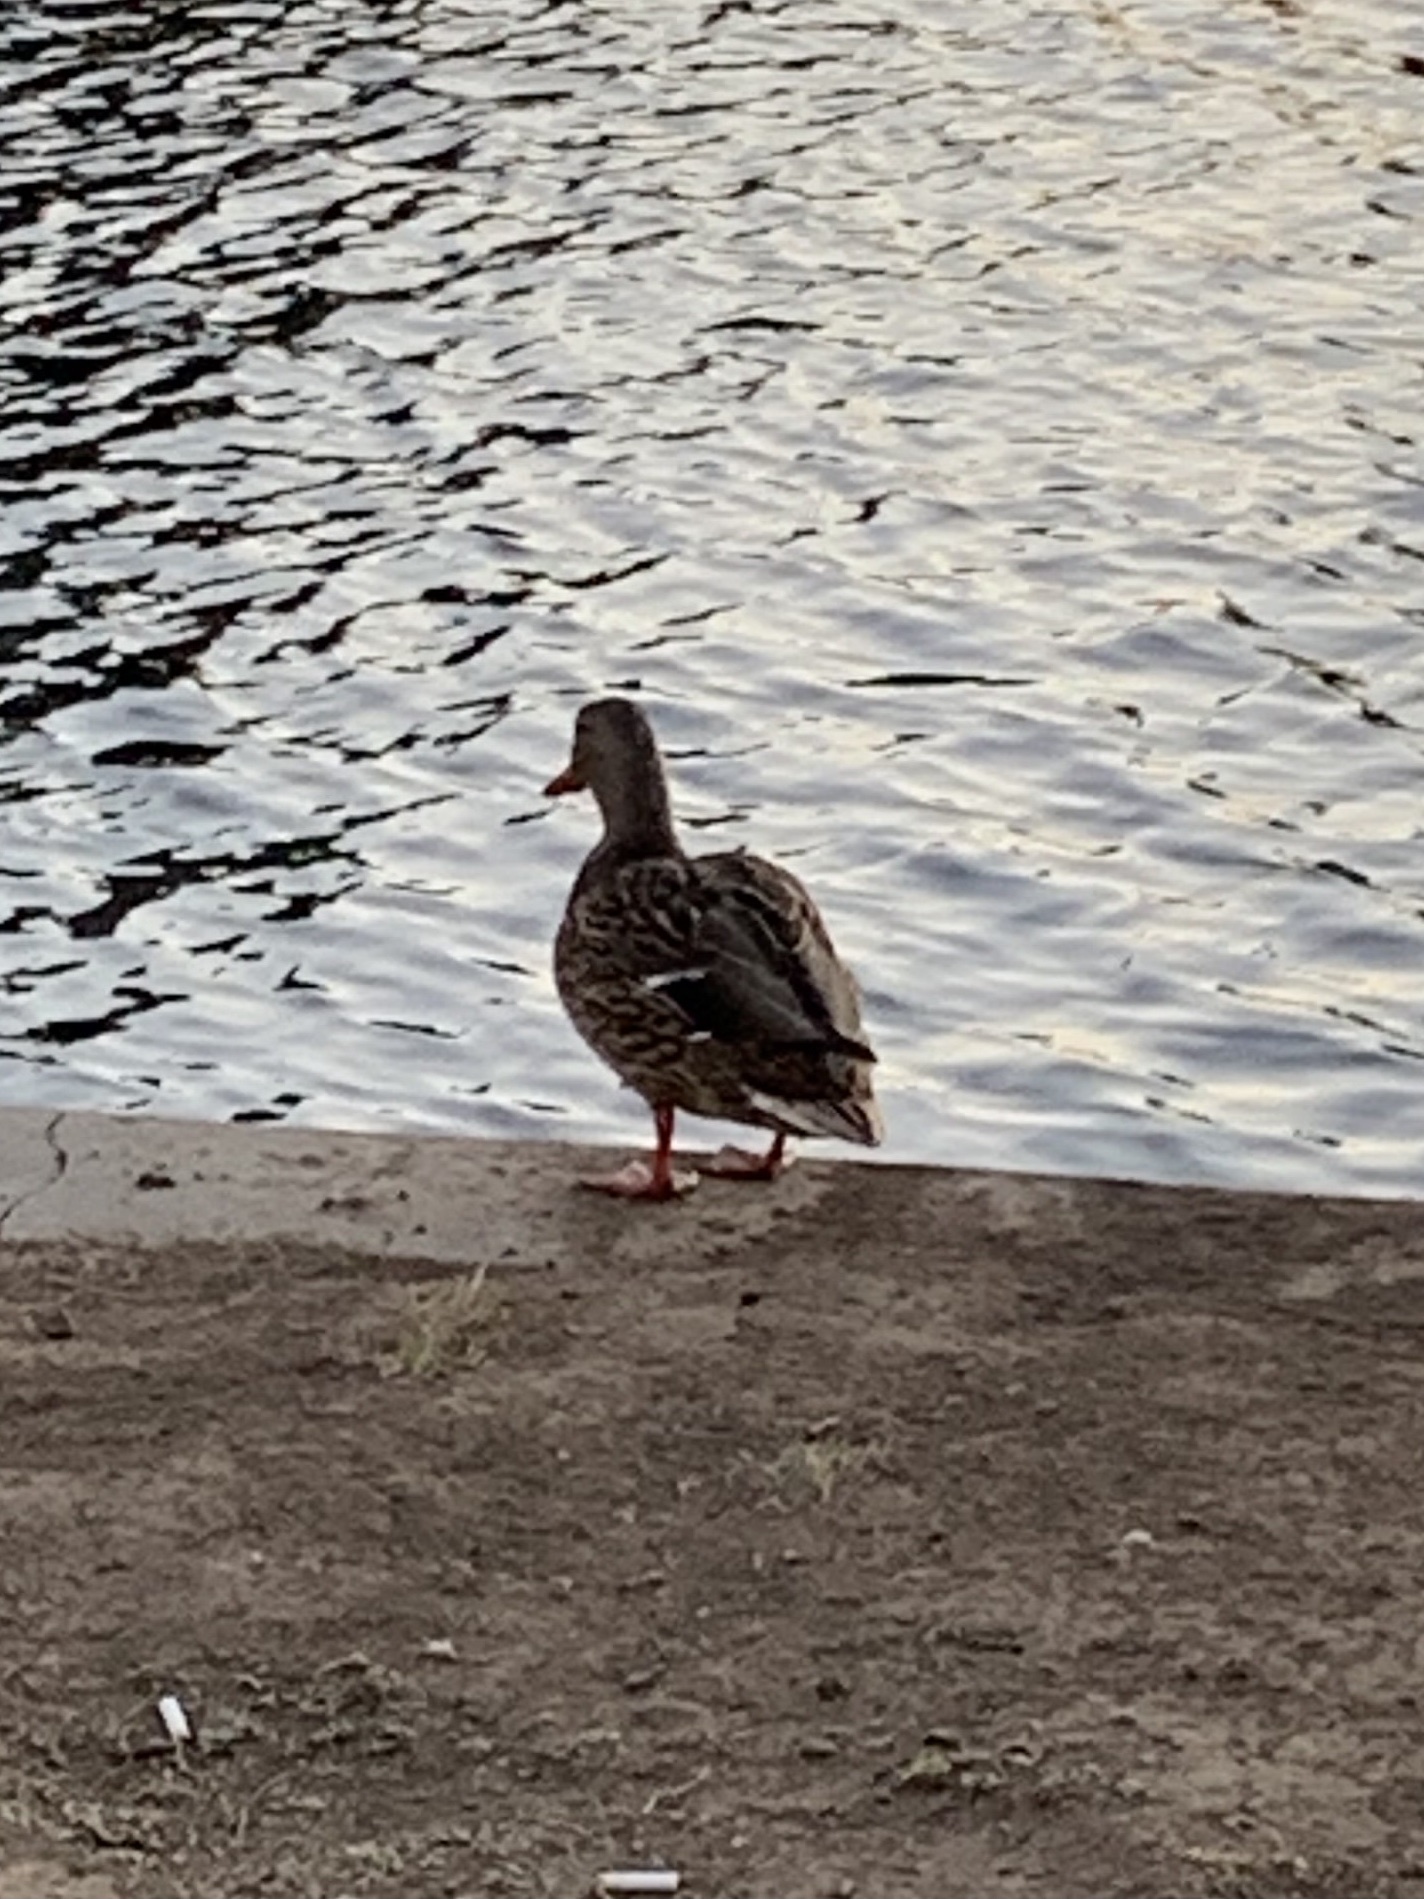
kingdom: Animalia
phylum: Chordata
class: Aves
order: Anseriformes
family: Anatidae
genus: Anas
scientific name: Anas platyrhynchos
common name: Mallard
